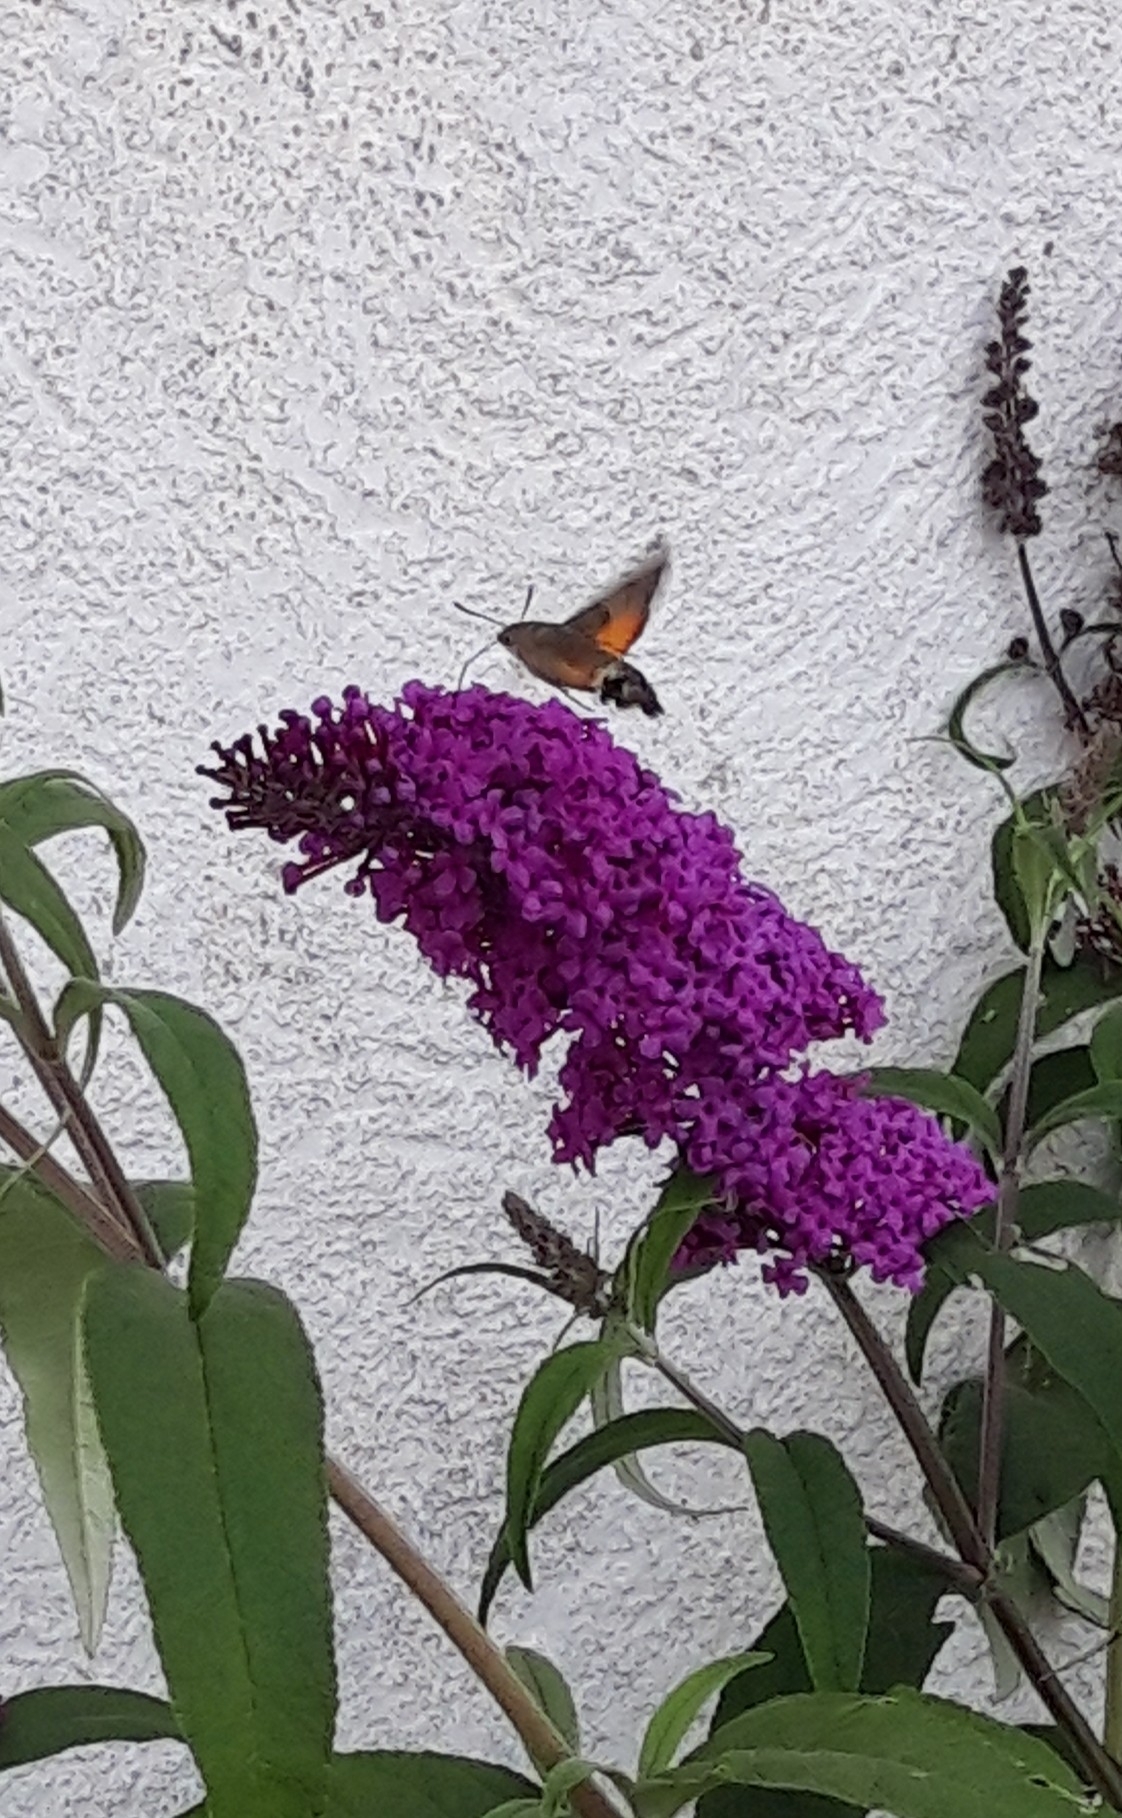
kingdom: Animalia
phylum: Arthropoda
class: Insecta
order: Lepidoptera
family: Sphingidae
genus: Macroglossum
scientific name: Macroglossum stellatarum
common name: Humming-bird hawk-moth
